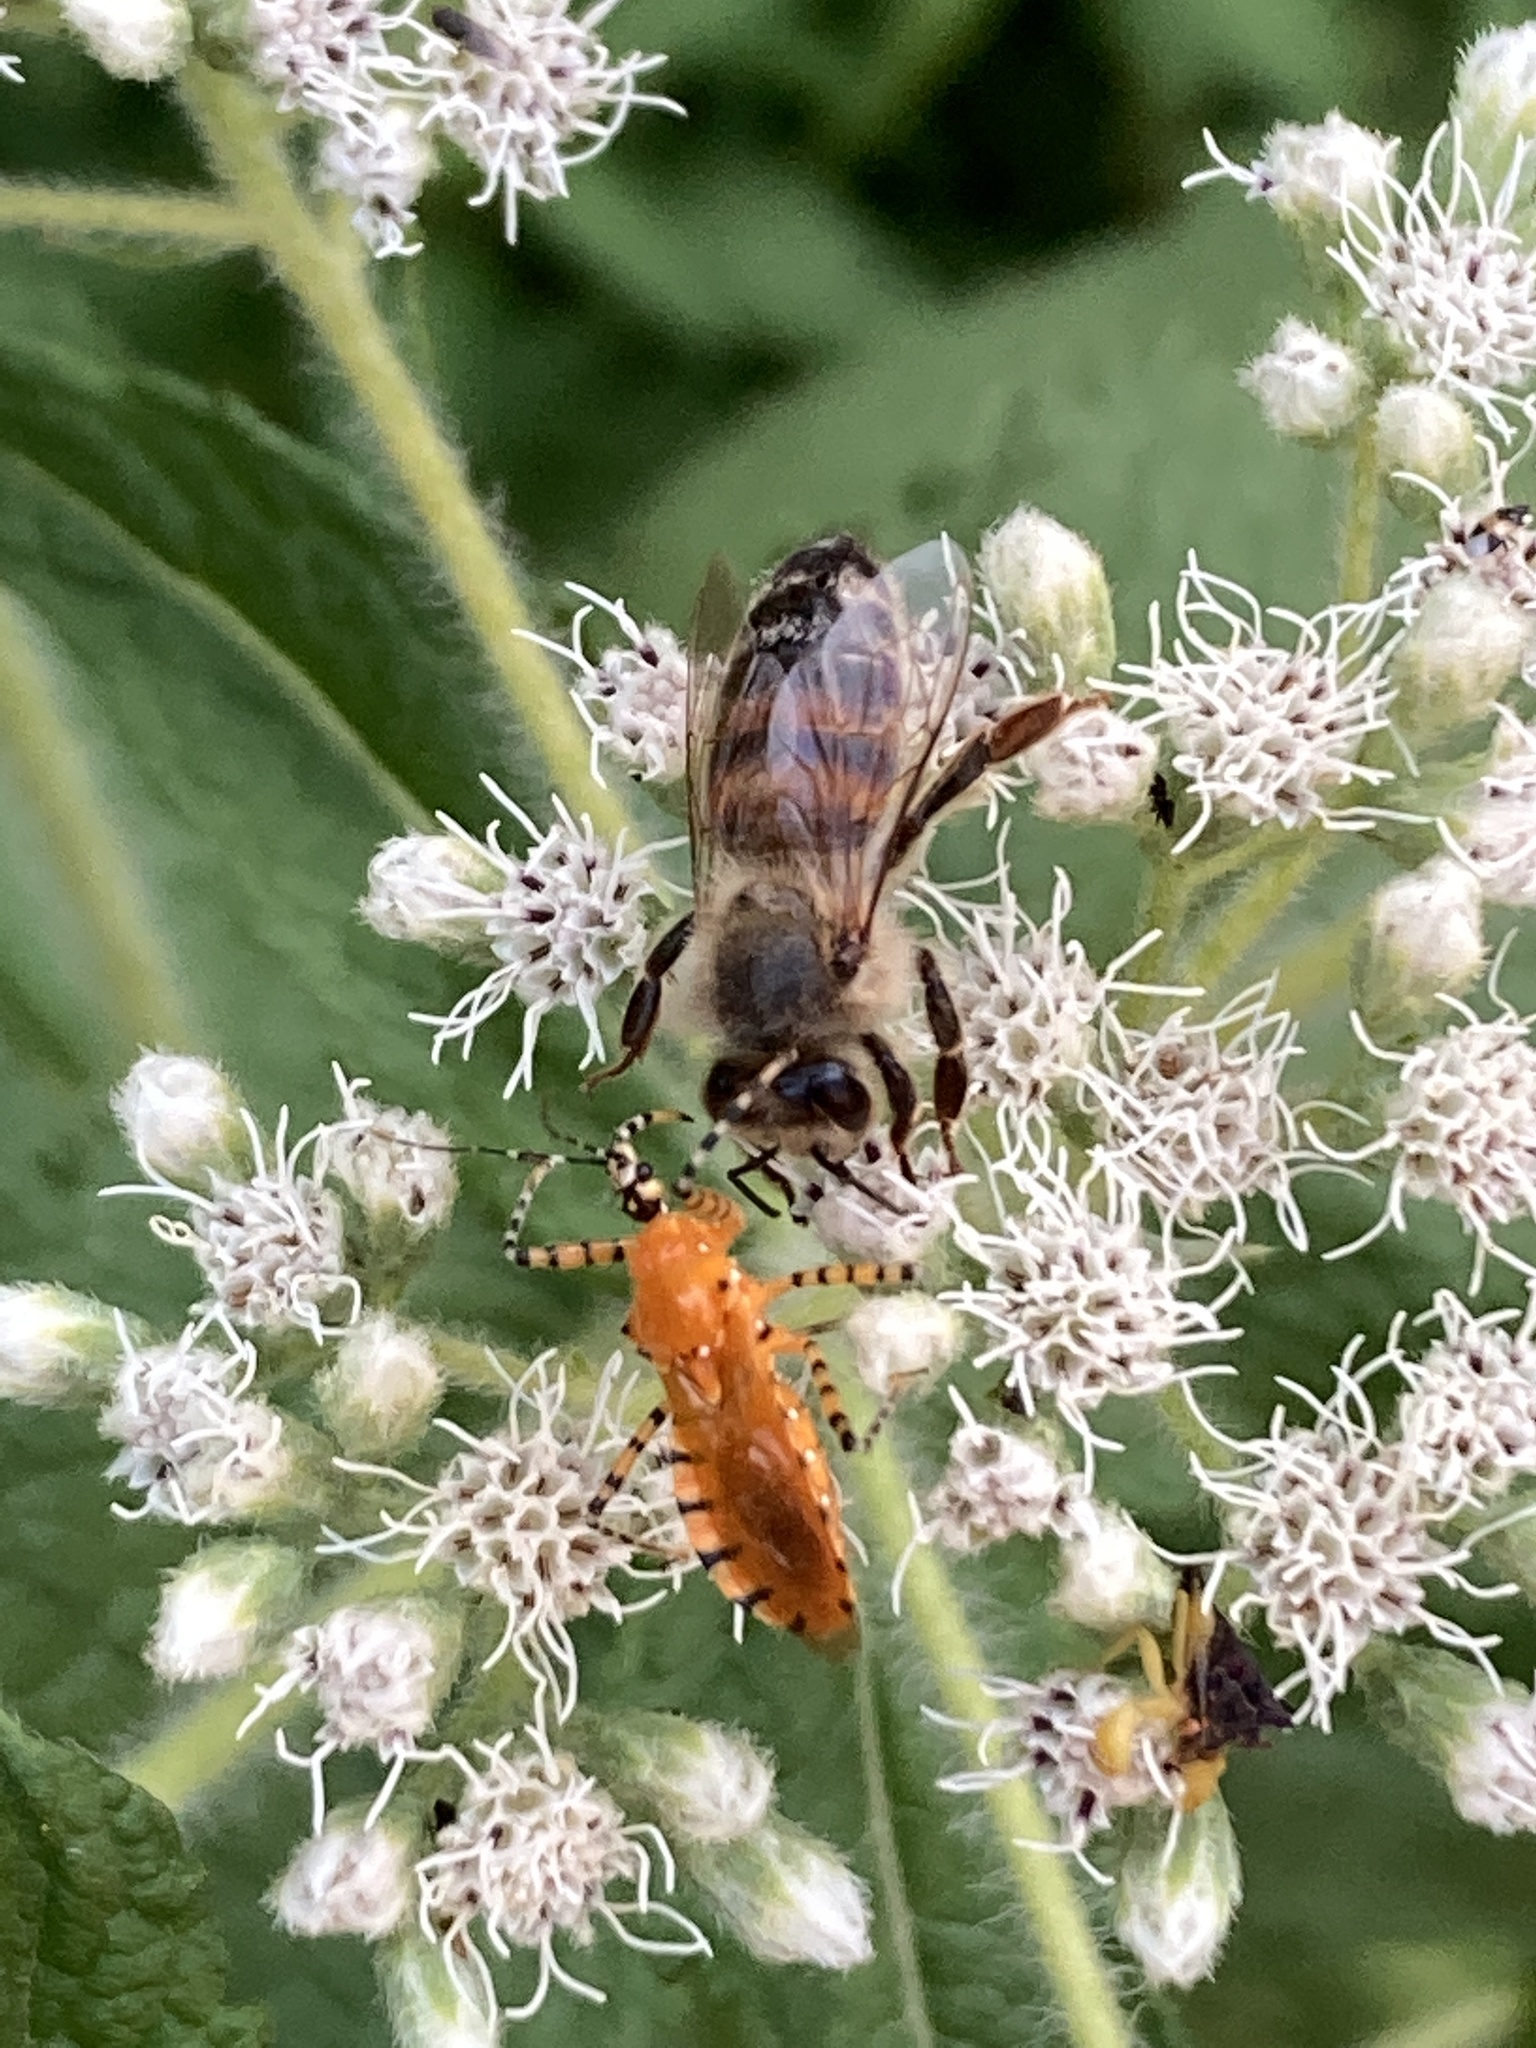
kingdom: Animalia
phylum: Arthropoda
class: Insecta
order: Hymenoptera
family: Apidae
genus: Apis
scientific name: Apis mellifera
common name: Honey bee
